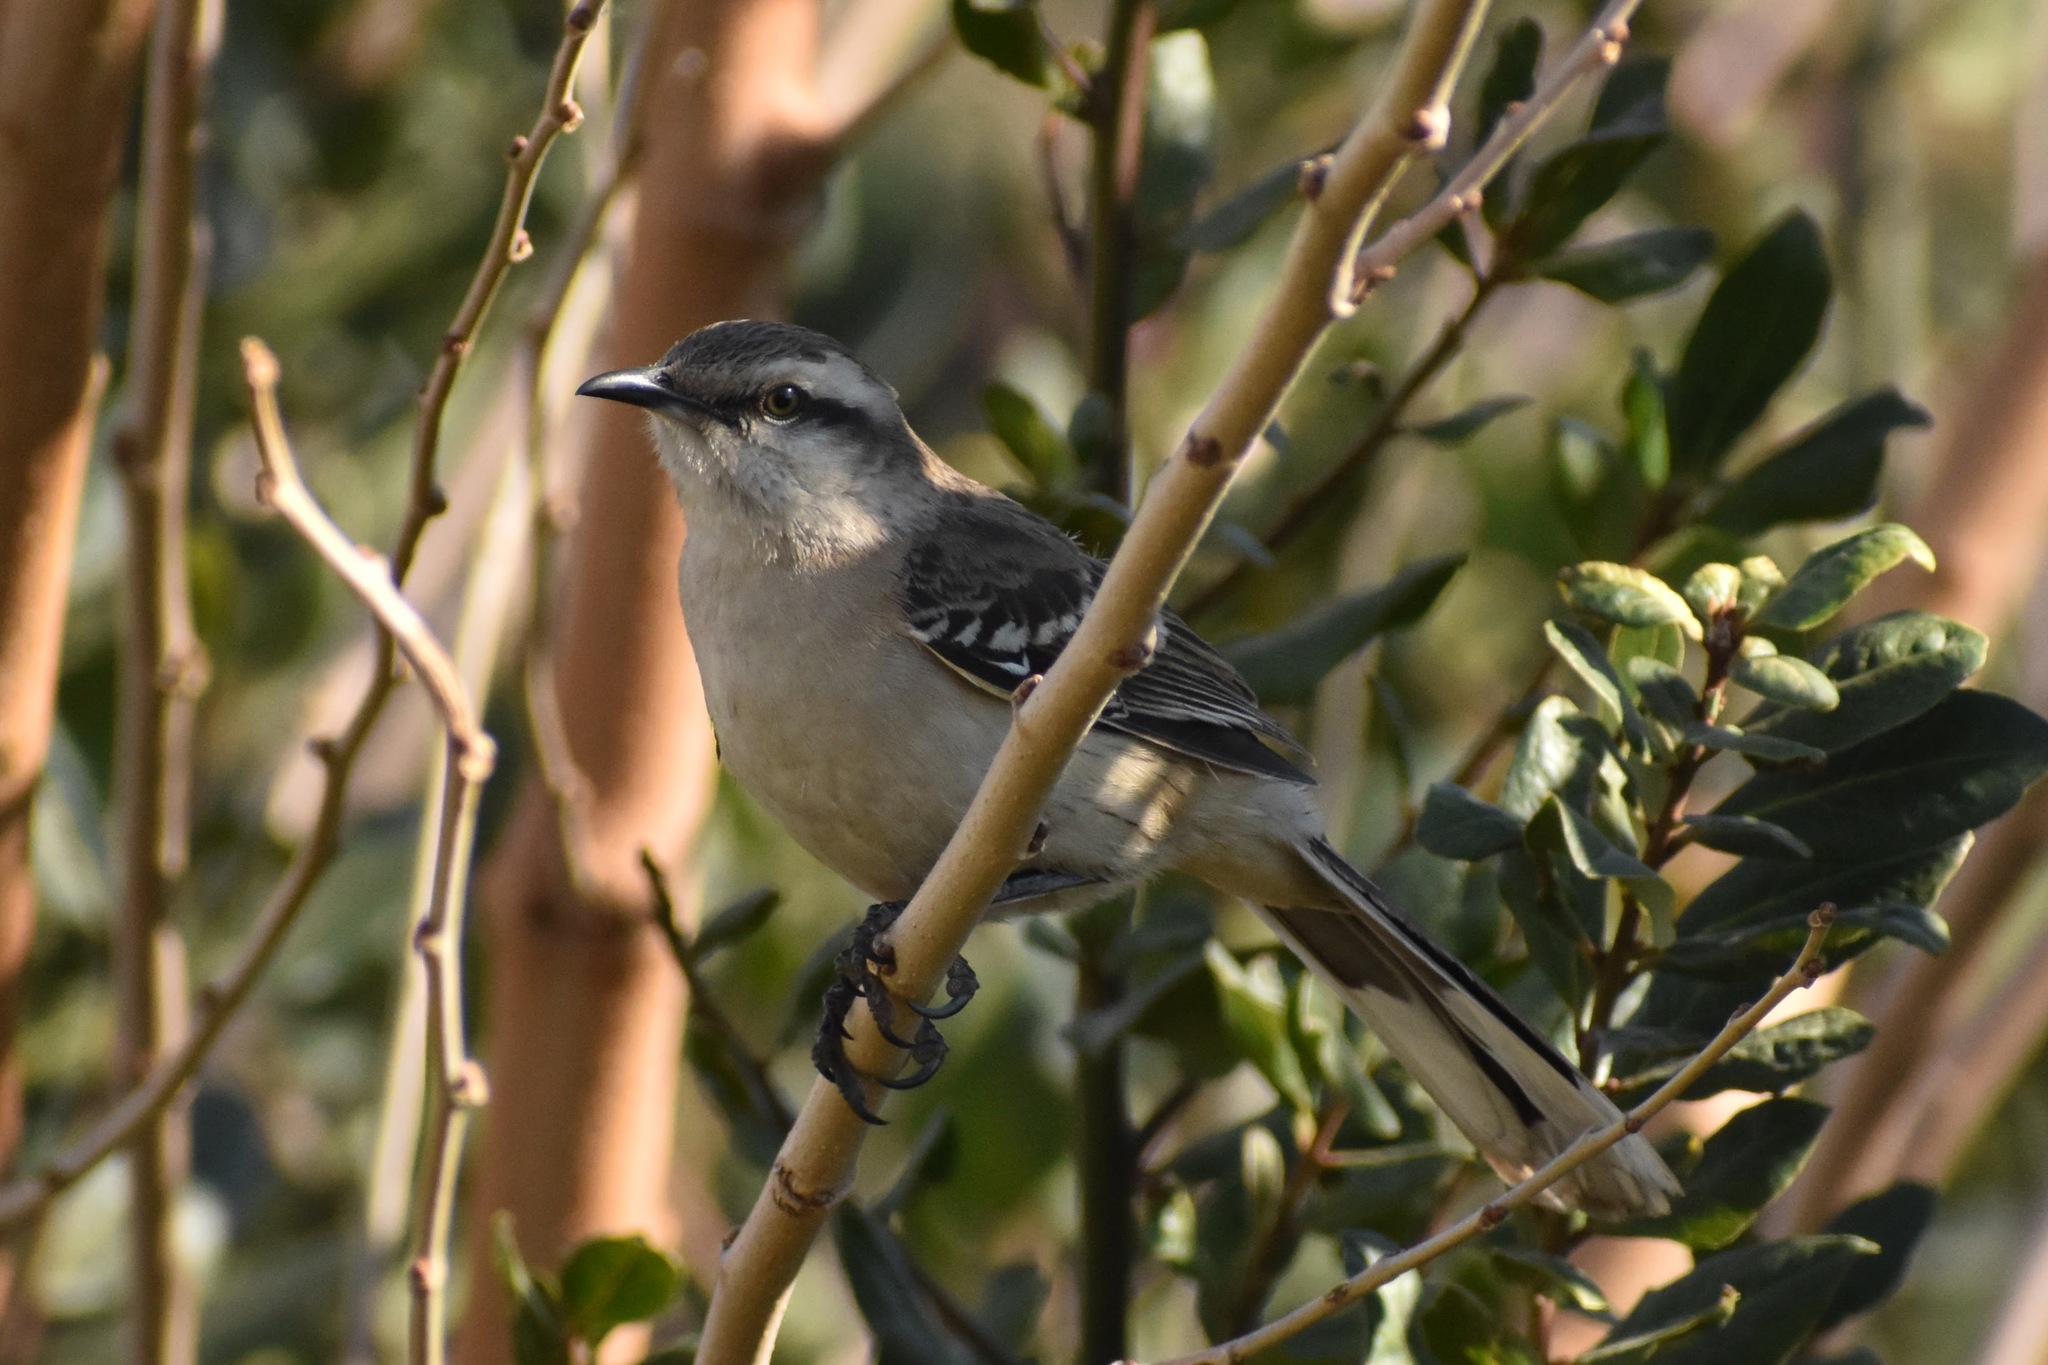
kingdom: Animalia
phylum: Chordata
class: Aves
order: Passeriformes
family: Mimidae
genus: Mimus
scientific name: Mimus saturninus
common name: Chalk-browed mockingbird
